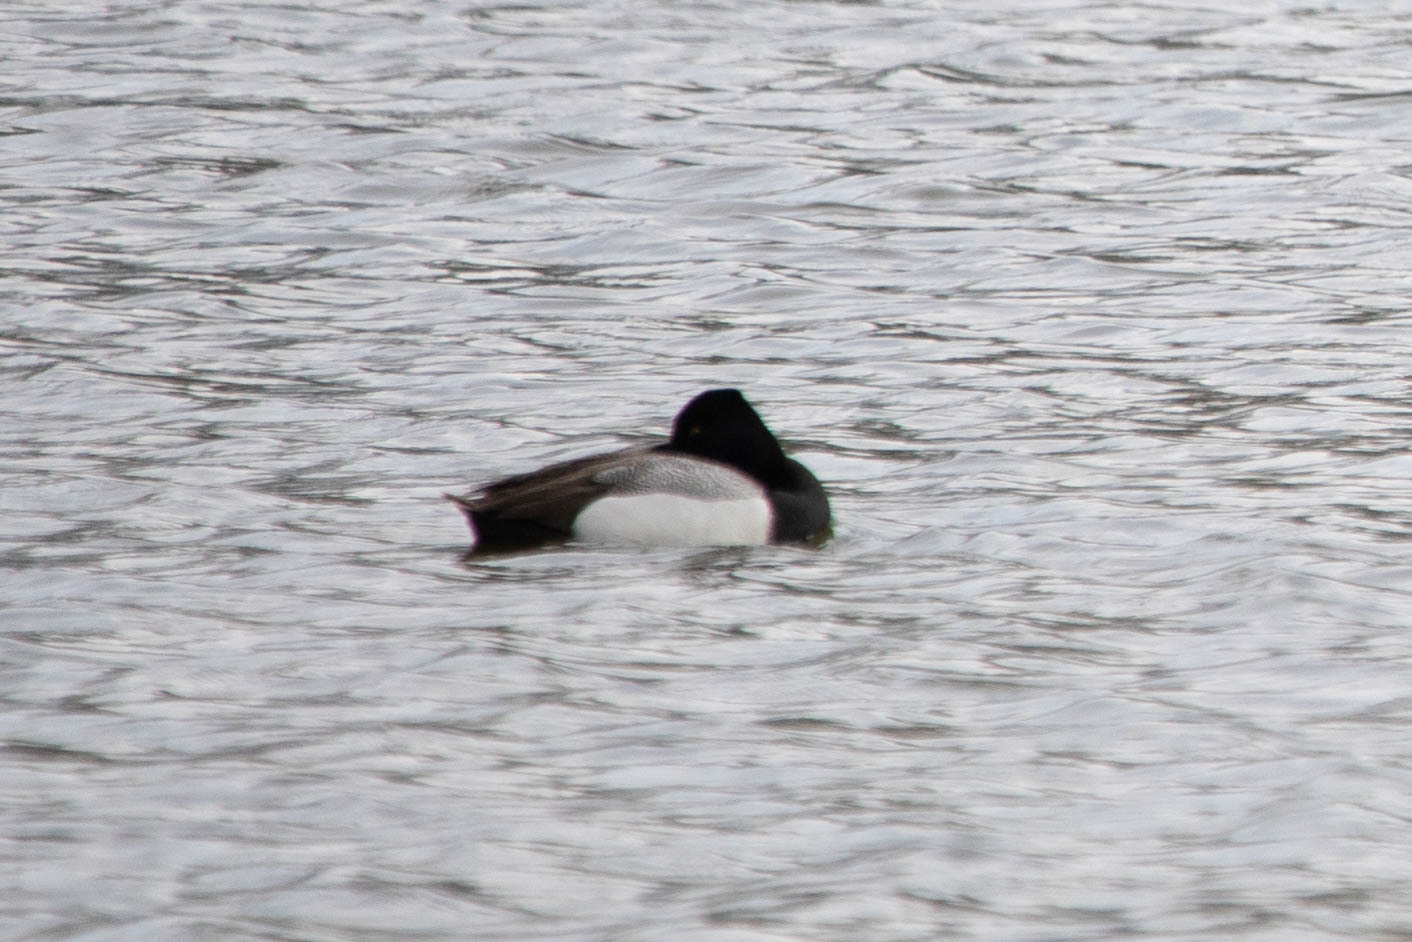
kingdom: Animalia
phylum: Chordata
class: Aves
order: Anseriformes
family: Anatidae
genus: Aythya
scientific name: Aythya affinis
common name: Lesser scaup
